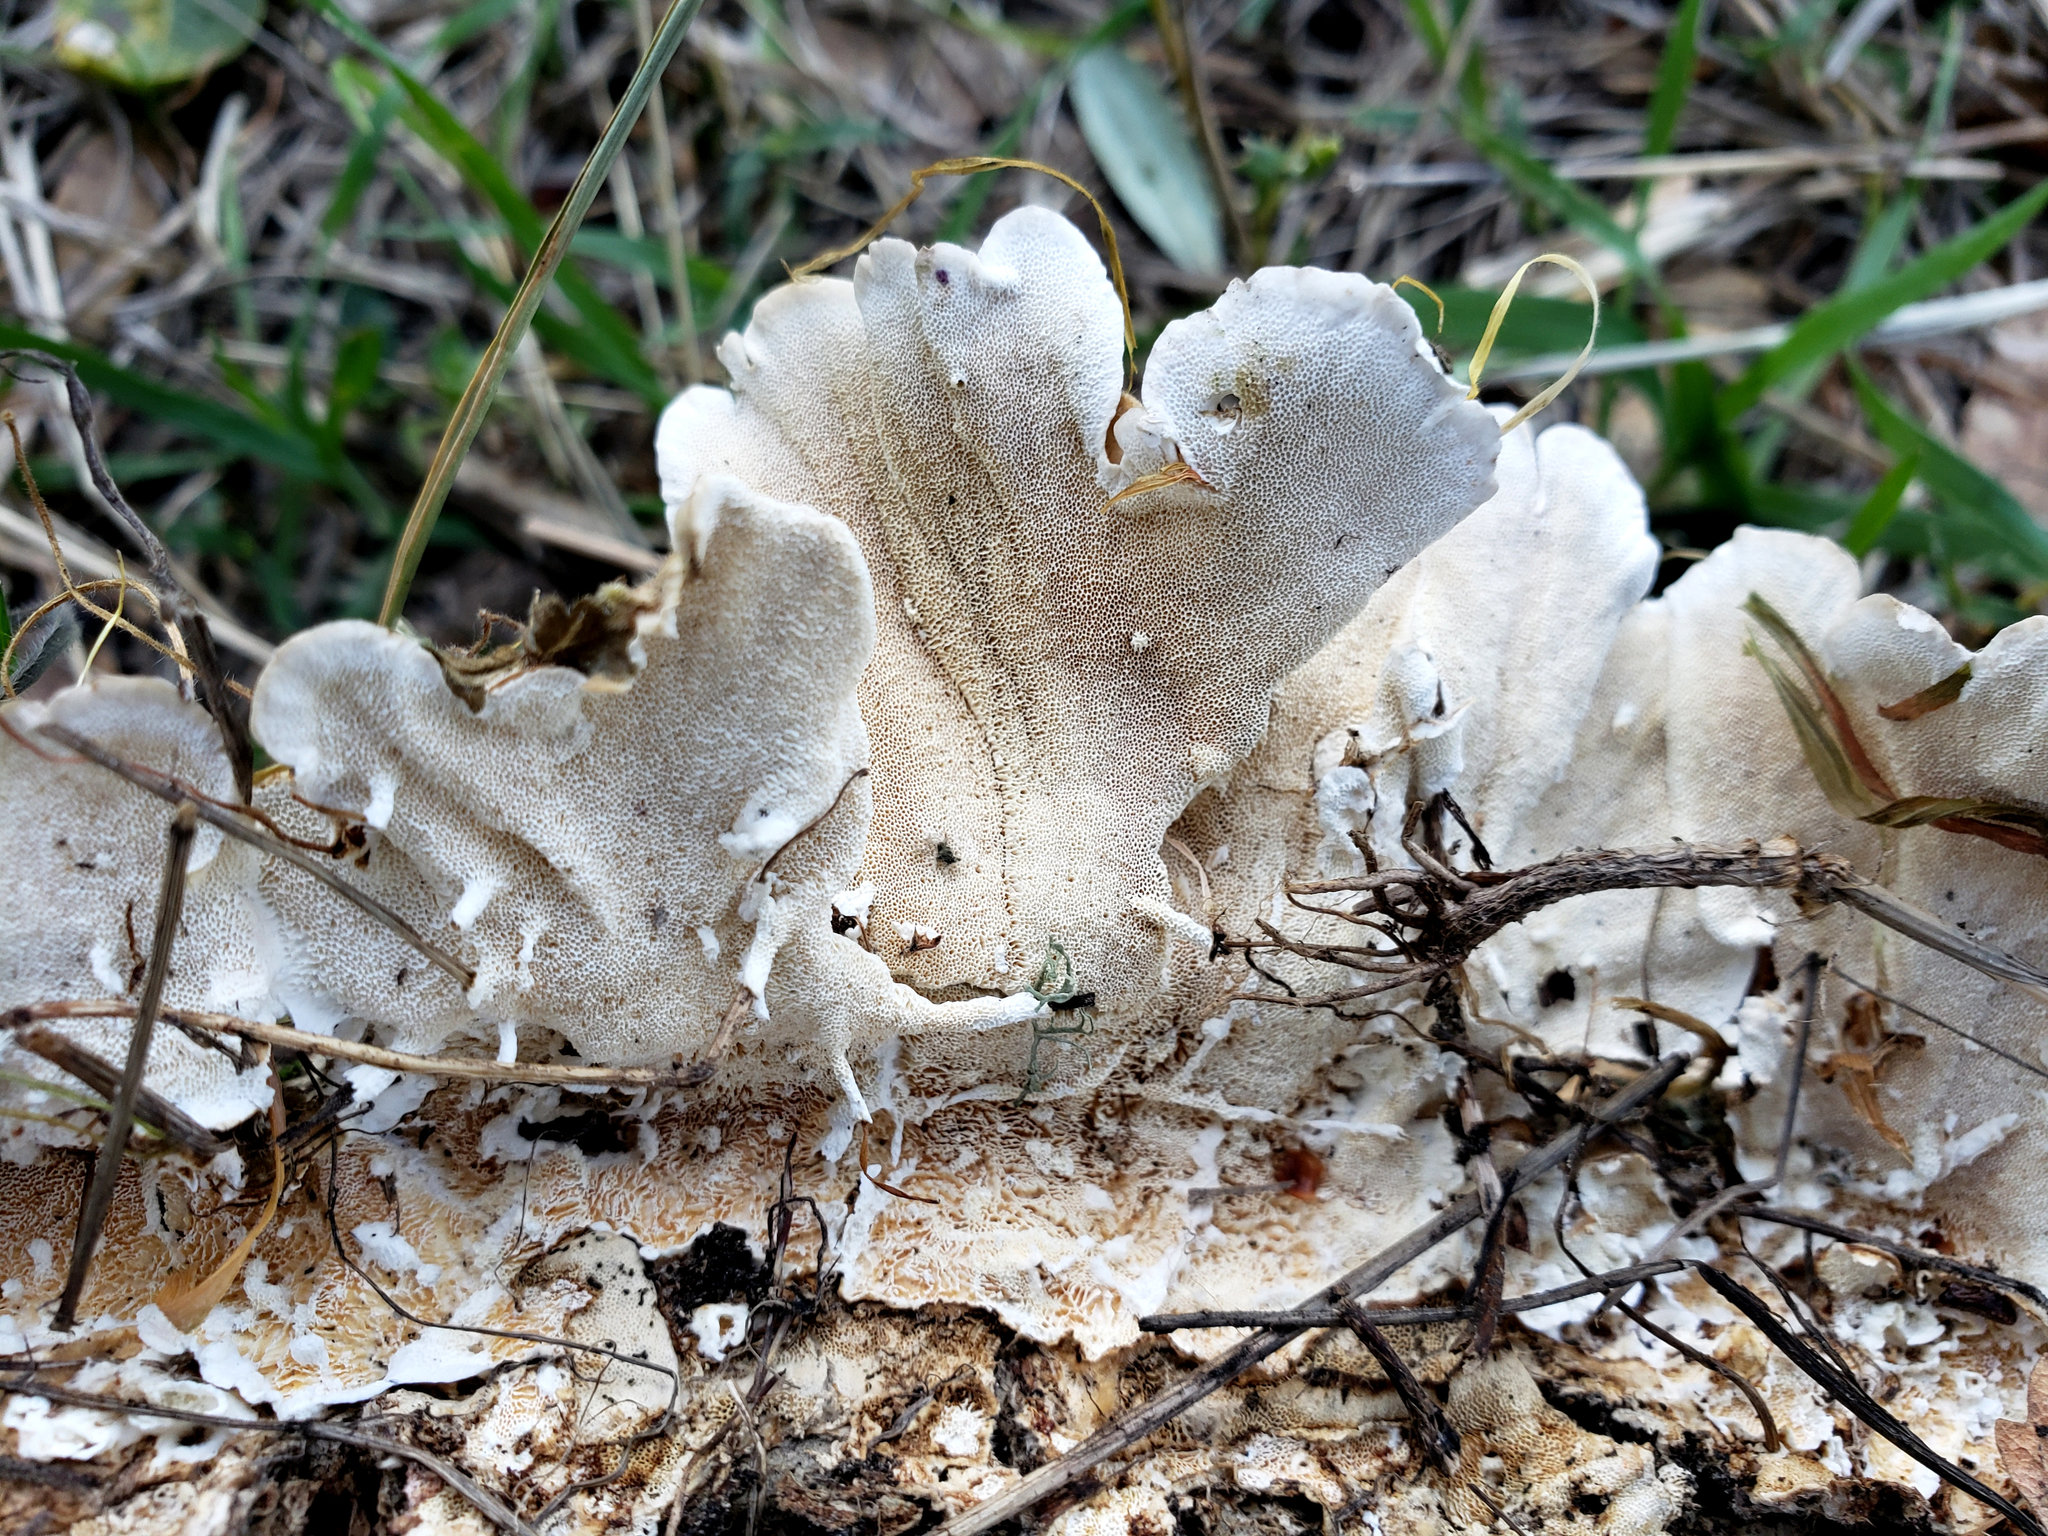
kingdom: Fungi
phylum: Basidiomycota
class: Agaricomycetes
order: Polyporales
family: Polyporaceae
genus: Trametes
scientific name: Trametes versicolor
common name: Turkeytail
